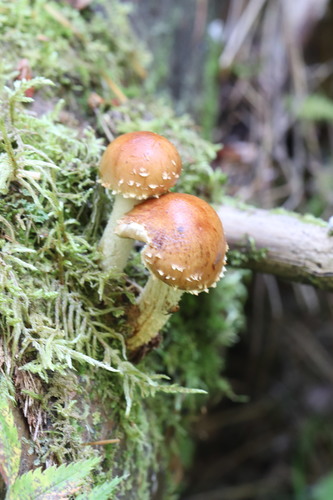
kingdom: Fungi
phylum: Basidiomycota
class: Agaricomycetes
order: Agaricales
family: Strophariaceae
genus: Pholiota
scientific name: Pholiota mixta
